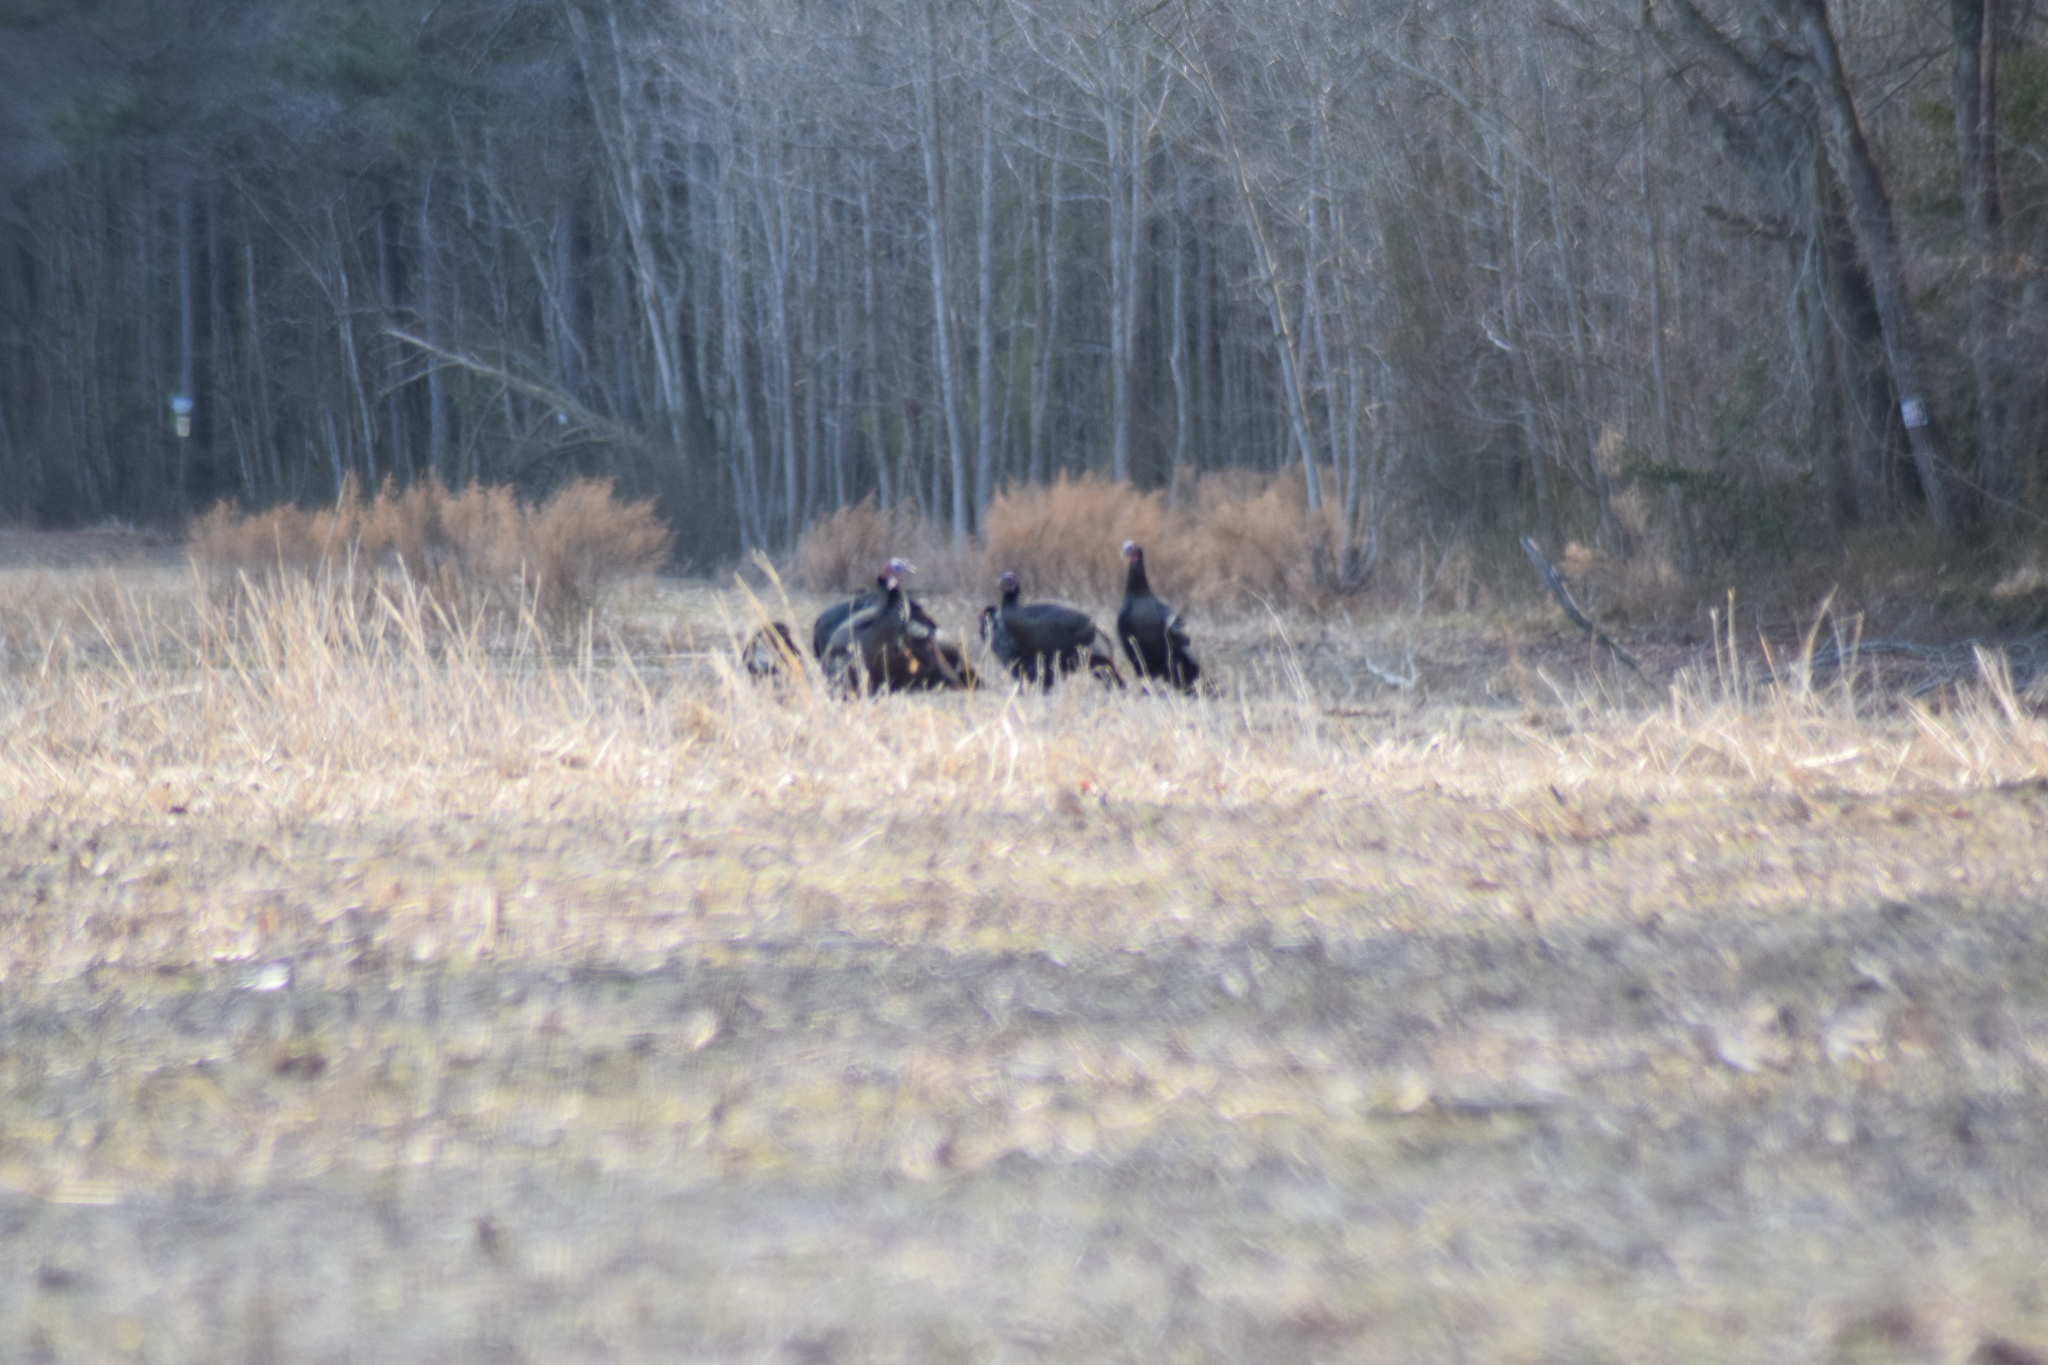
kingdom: Animalia
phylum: Chordata
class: Aves
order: Galliformes
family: Phasianidae
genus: Meleagris
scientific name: Meleagris gallopavo
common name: Wild turkey
